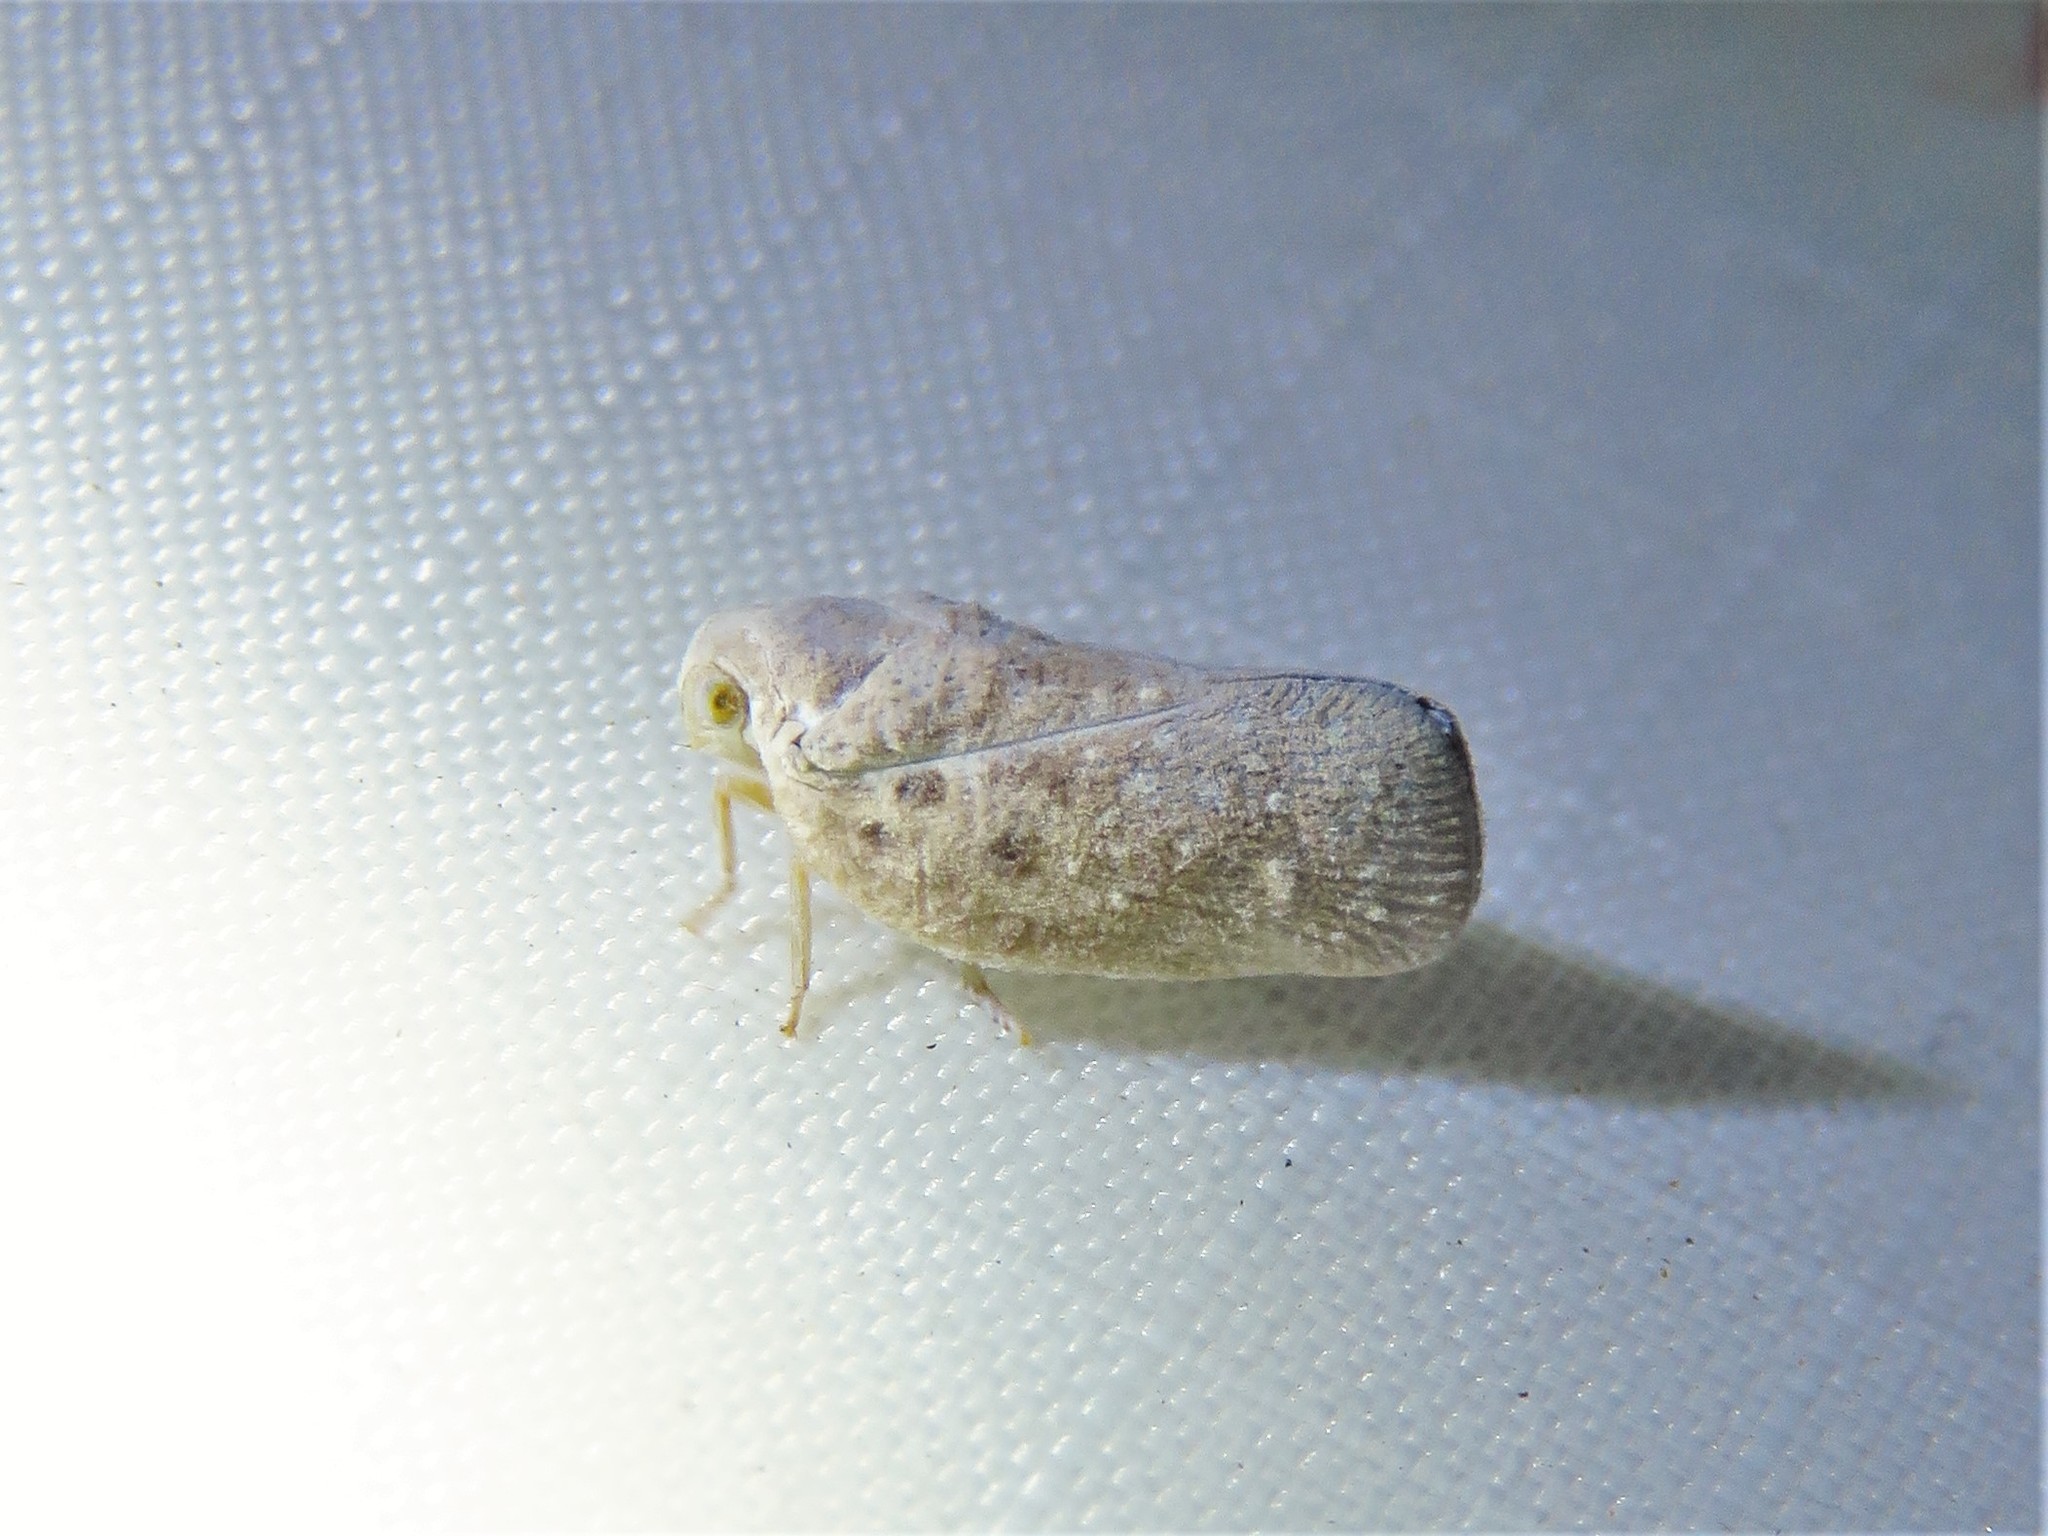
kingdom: Animalia
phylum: Arthropoda
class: Insecta
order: Hemiptera
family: Flatidae
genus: Metcalfa
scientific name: Metcalfa pruinosa
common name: Citrus flatid planthopper
